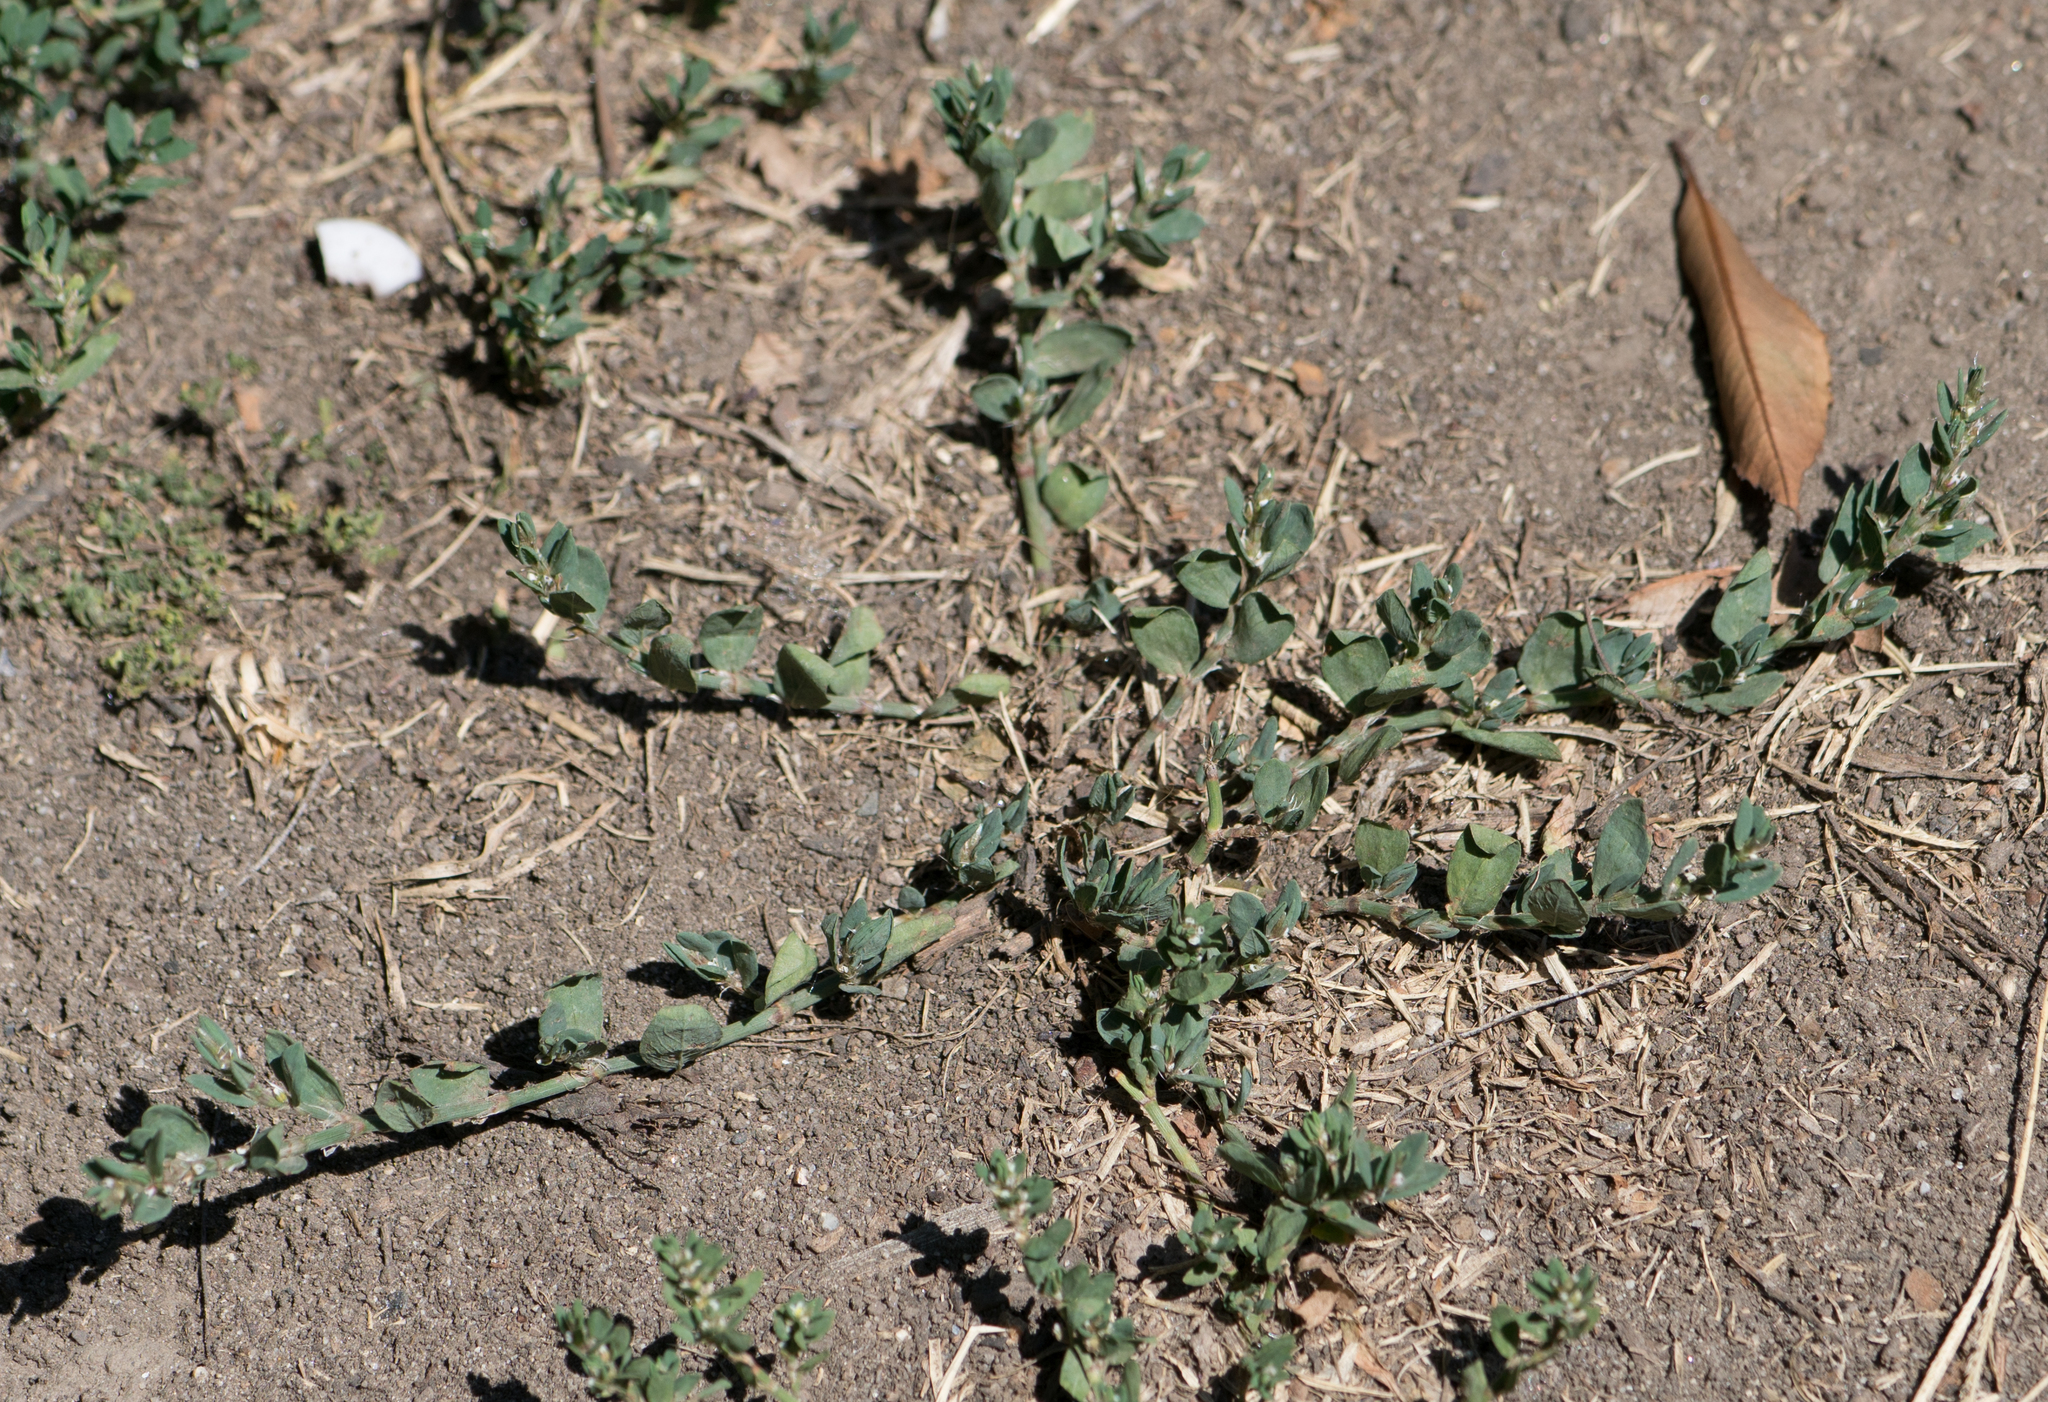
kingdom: Plantae
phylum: Tracheophyta
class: Magnoliopsida
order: Caryophyllales
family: Polygonaceae
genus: Polygonum
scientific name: Polygonum aviculare
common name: Prostrate knotweed
